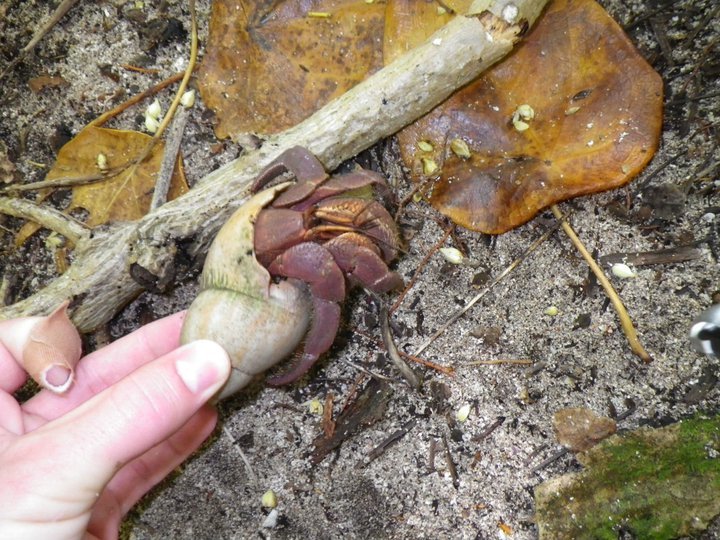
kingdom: Animalia
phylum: Arthropoda
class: Malacostraca
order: Decapoda
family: Coenobitidae
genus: Coenobita
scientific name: Coenobita brevimanus
